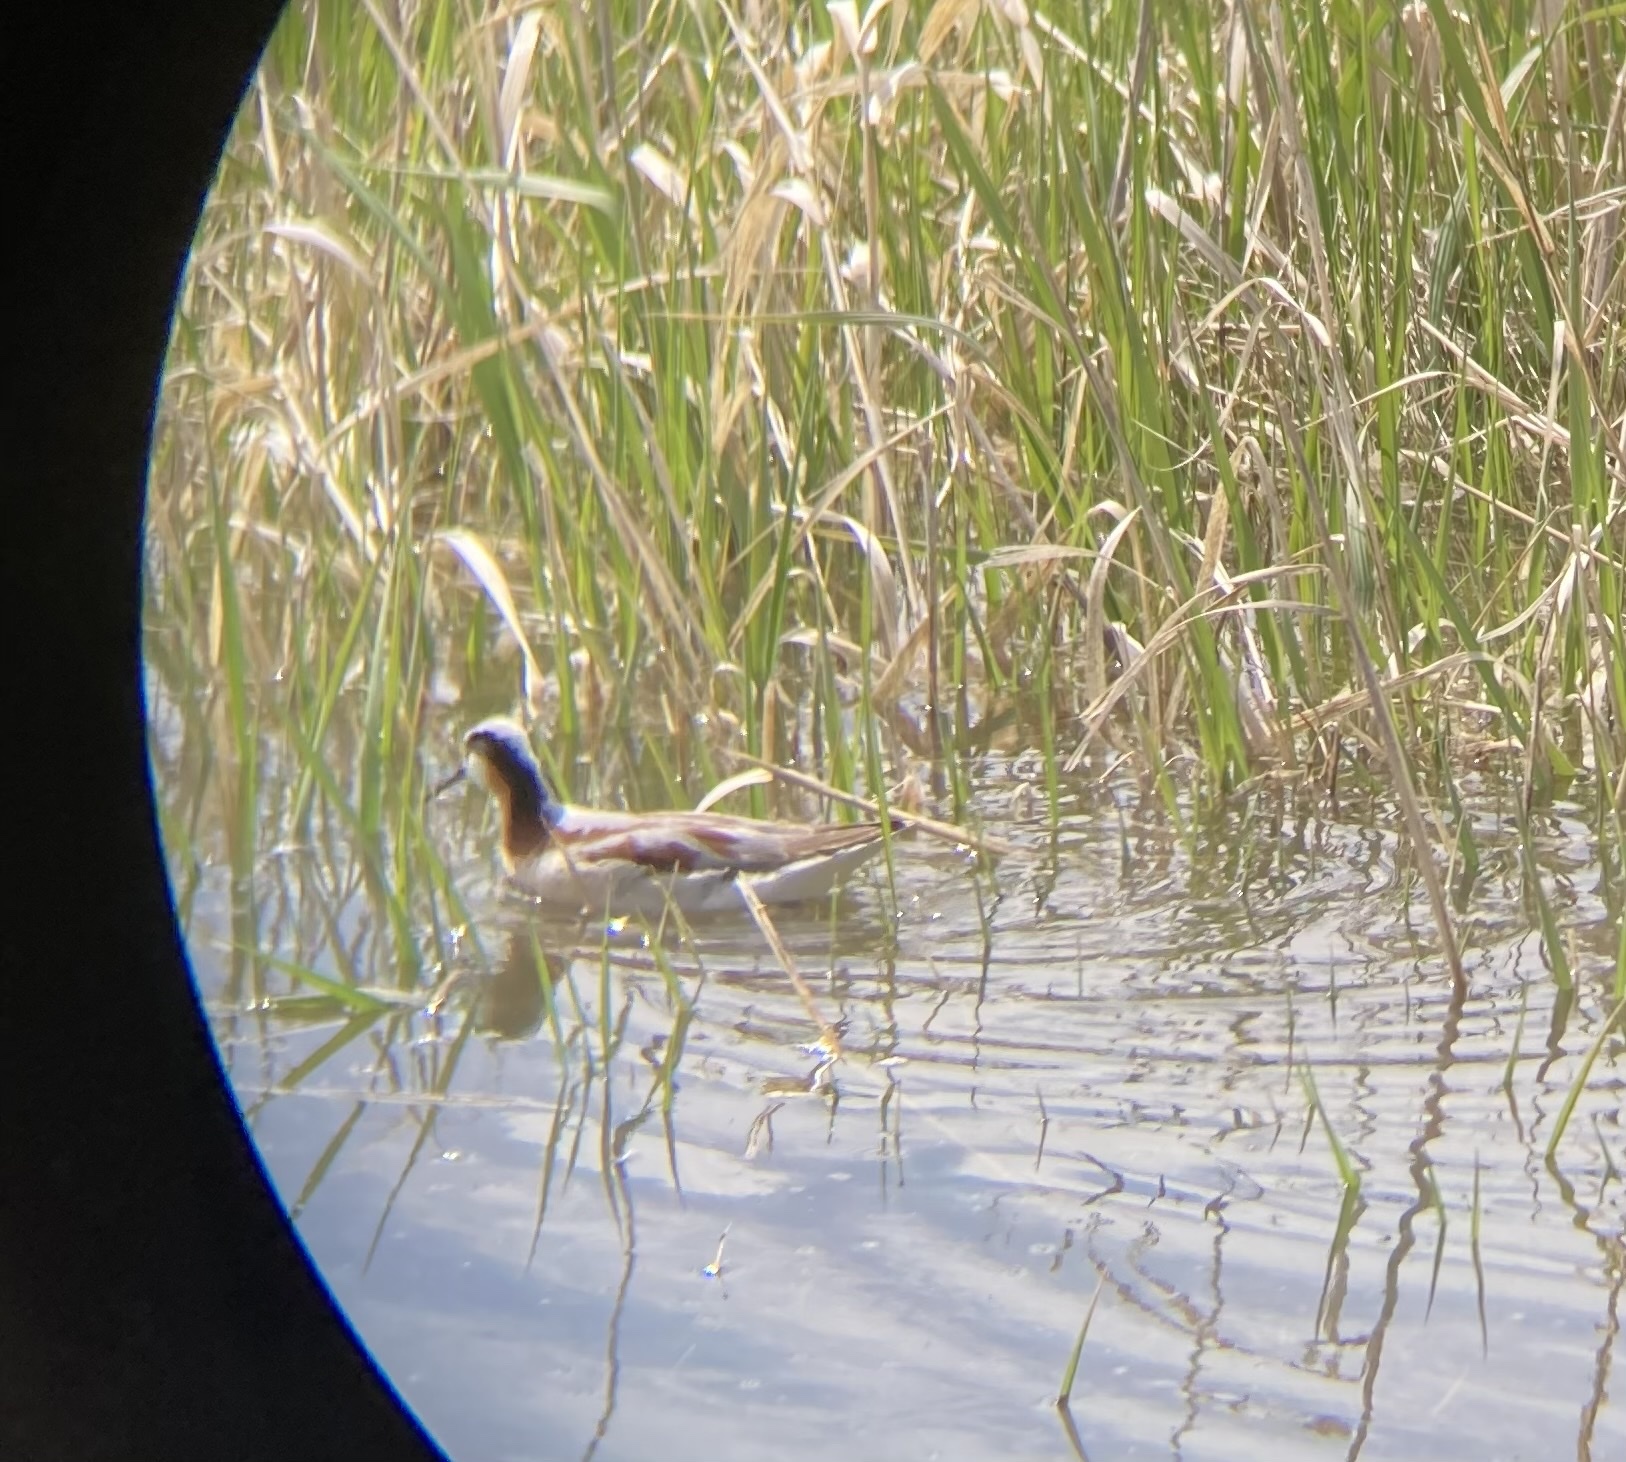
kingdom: Animalia
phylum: Chordata
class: Aves
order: Charadriiformes
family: Scolopacidae
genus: Phalaropus
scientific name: Phalaropus tricolor
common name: Wilson's phalarope
